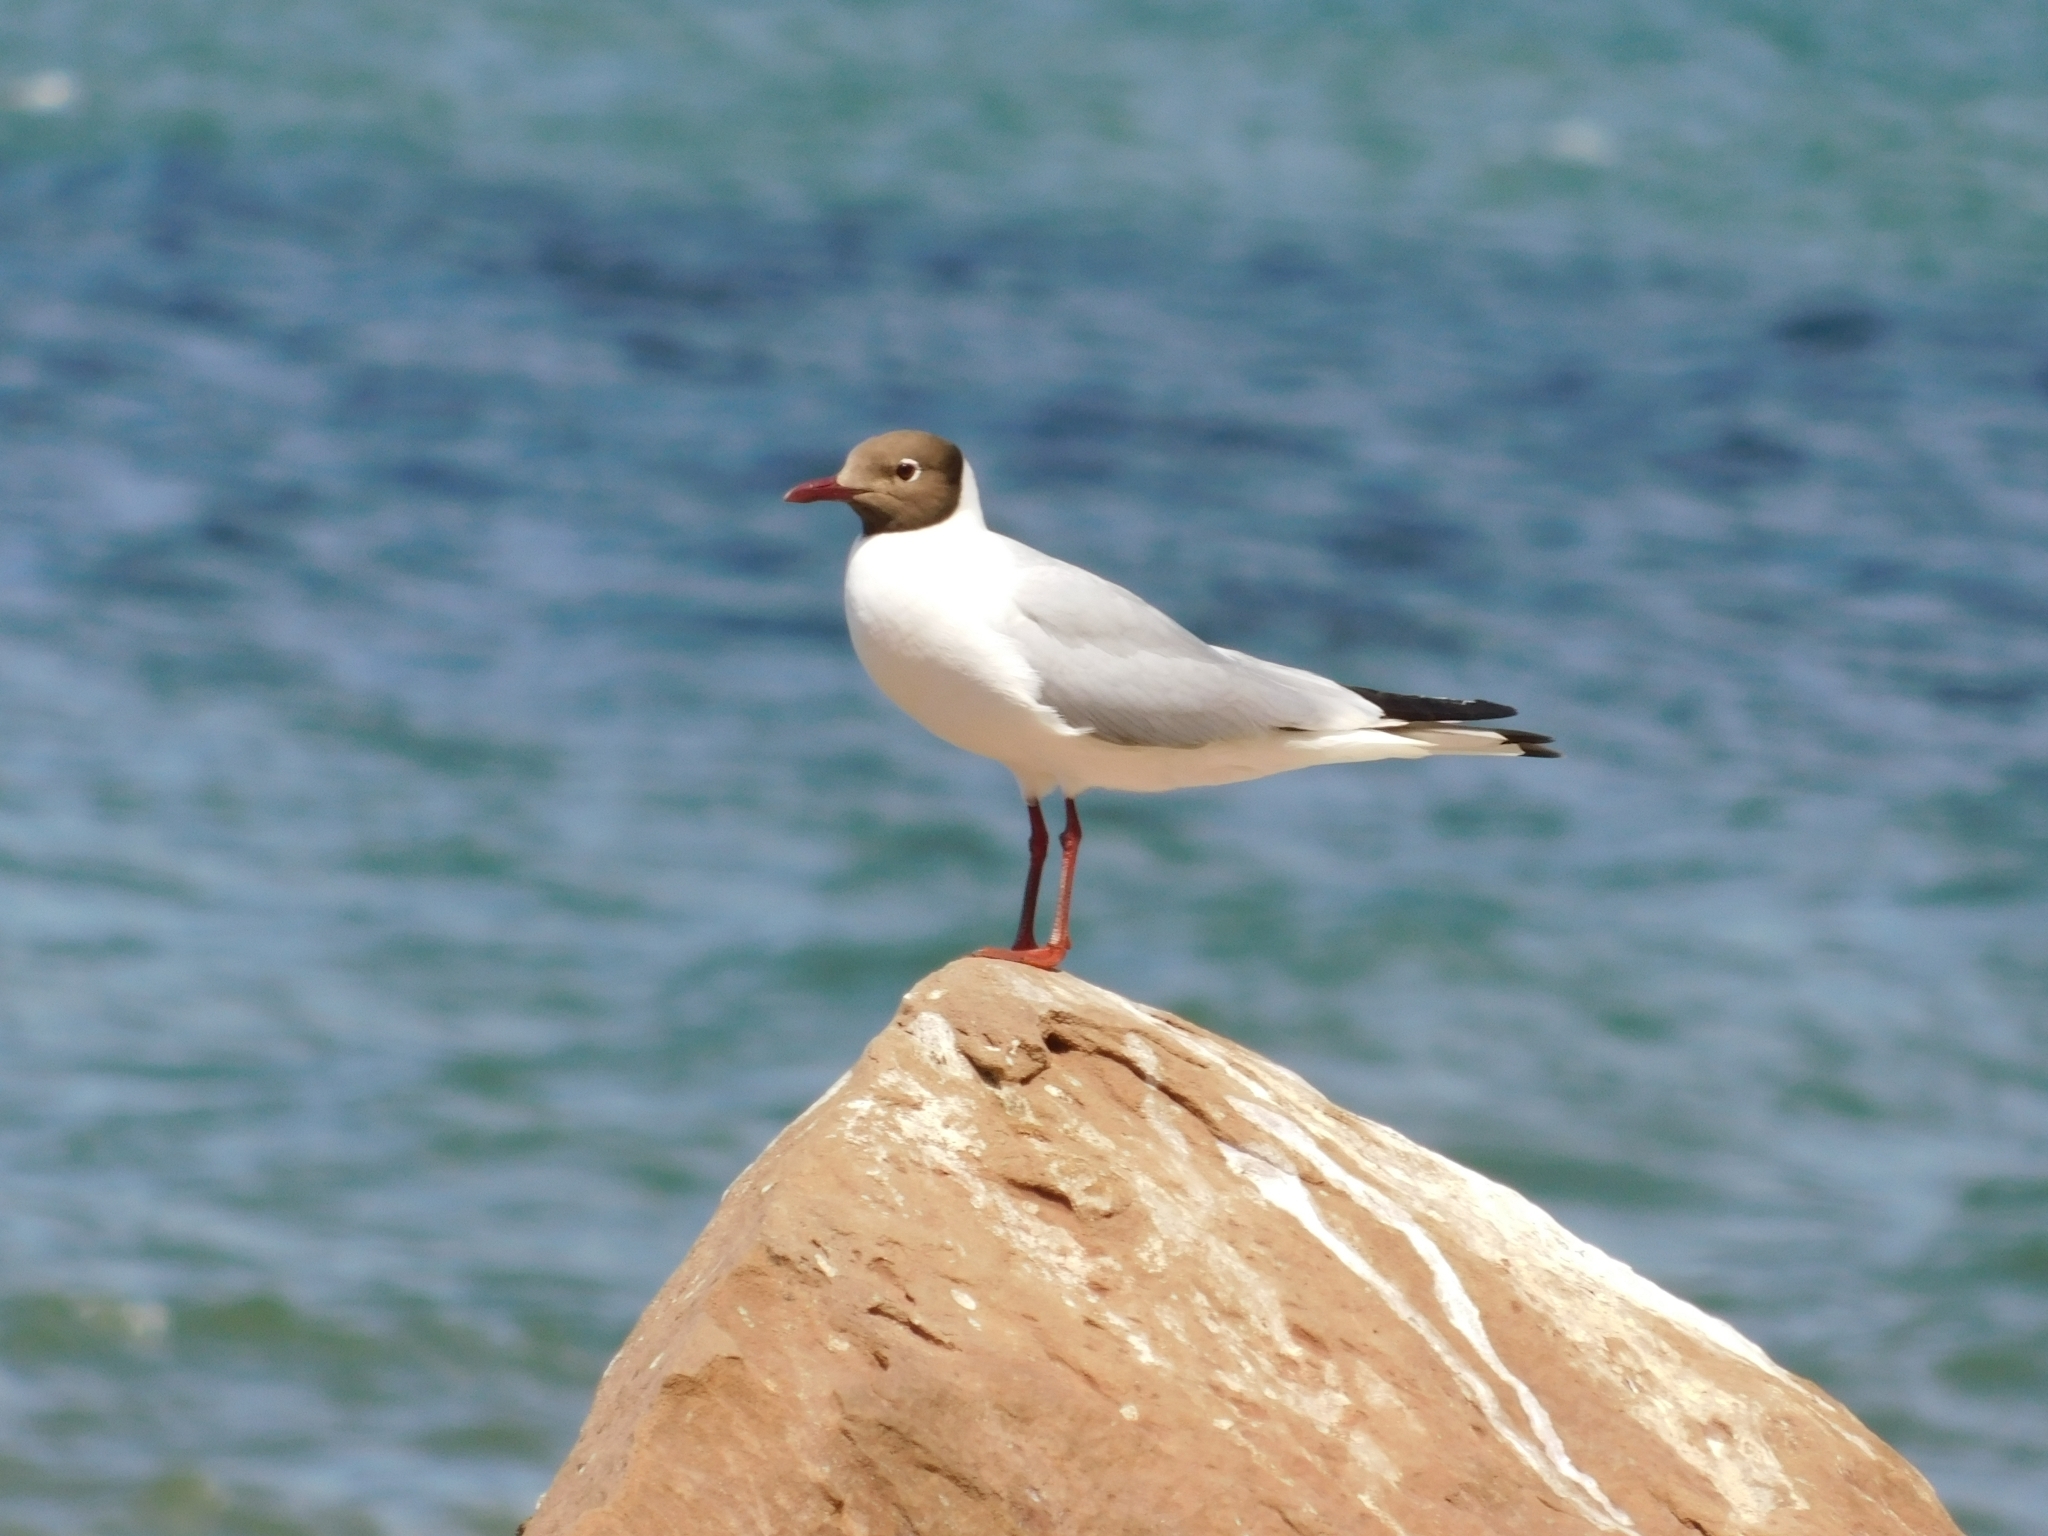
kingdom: Animalia
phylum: Chordata
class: Aves
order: Charadriiformes
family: Laridae
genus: Chroicocephalus
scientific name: Chroicocephalus ridibundus
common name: Black-headed gull
